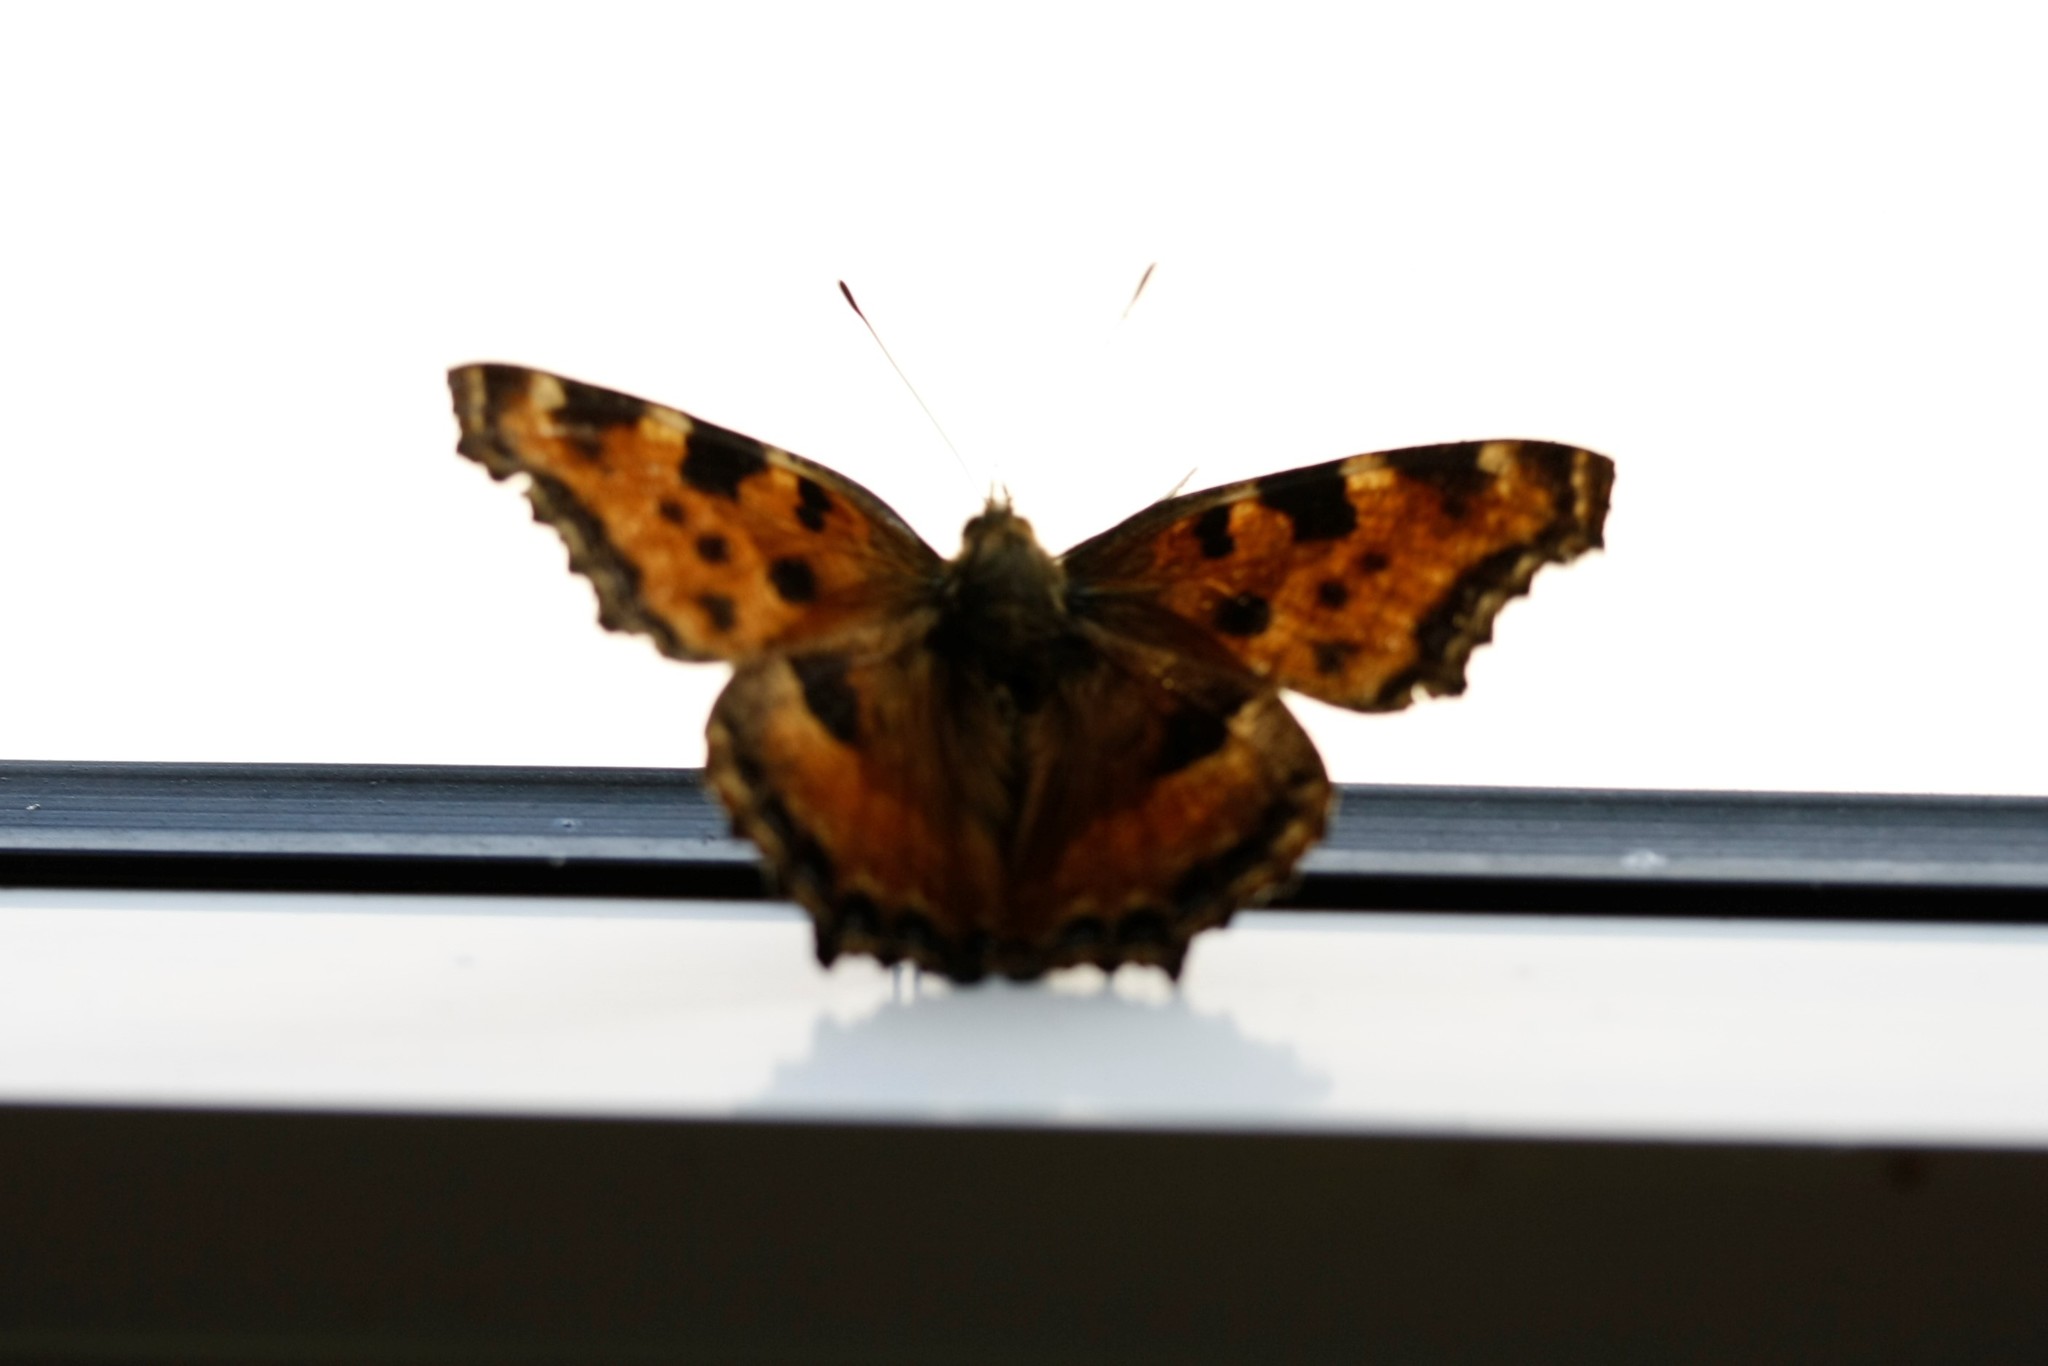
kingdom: Animalia
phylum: Arthropoda
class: Insecta
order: Lepidoptera
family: Nymphalidae
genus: Nymphalis
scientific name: Nymphalis polychloros
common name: Large tortoiseshell
